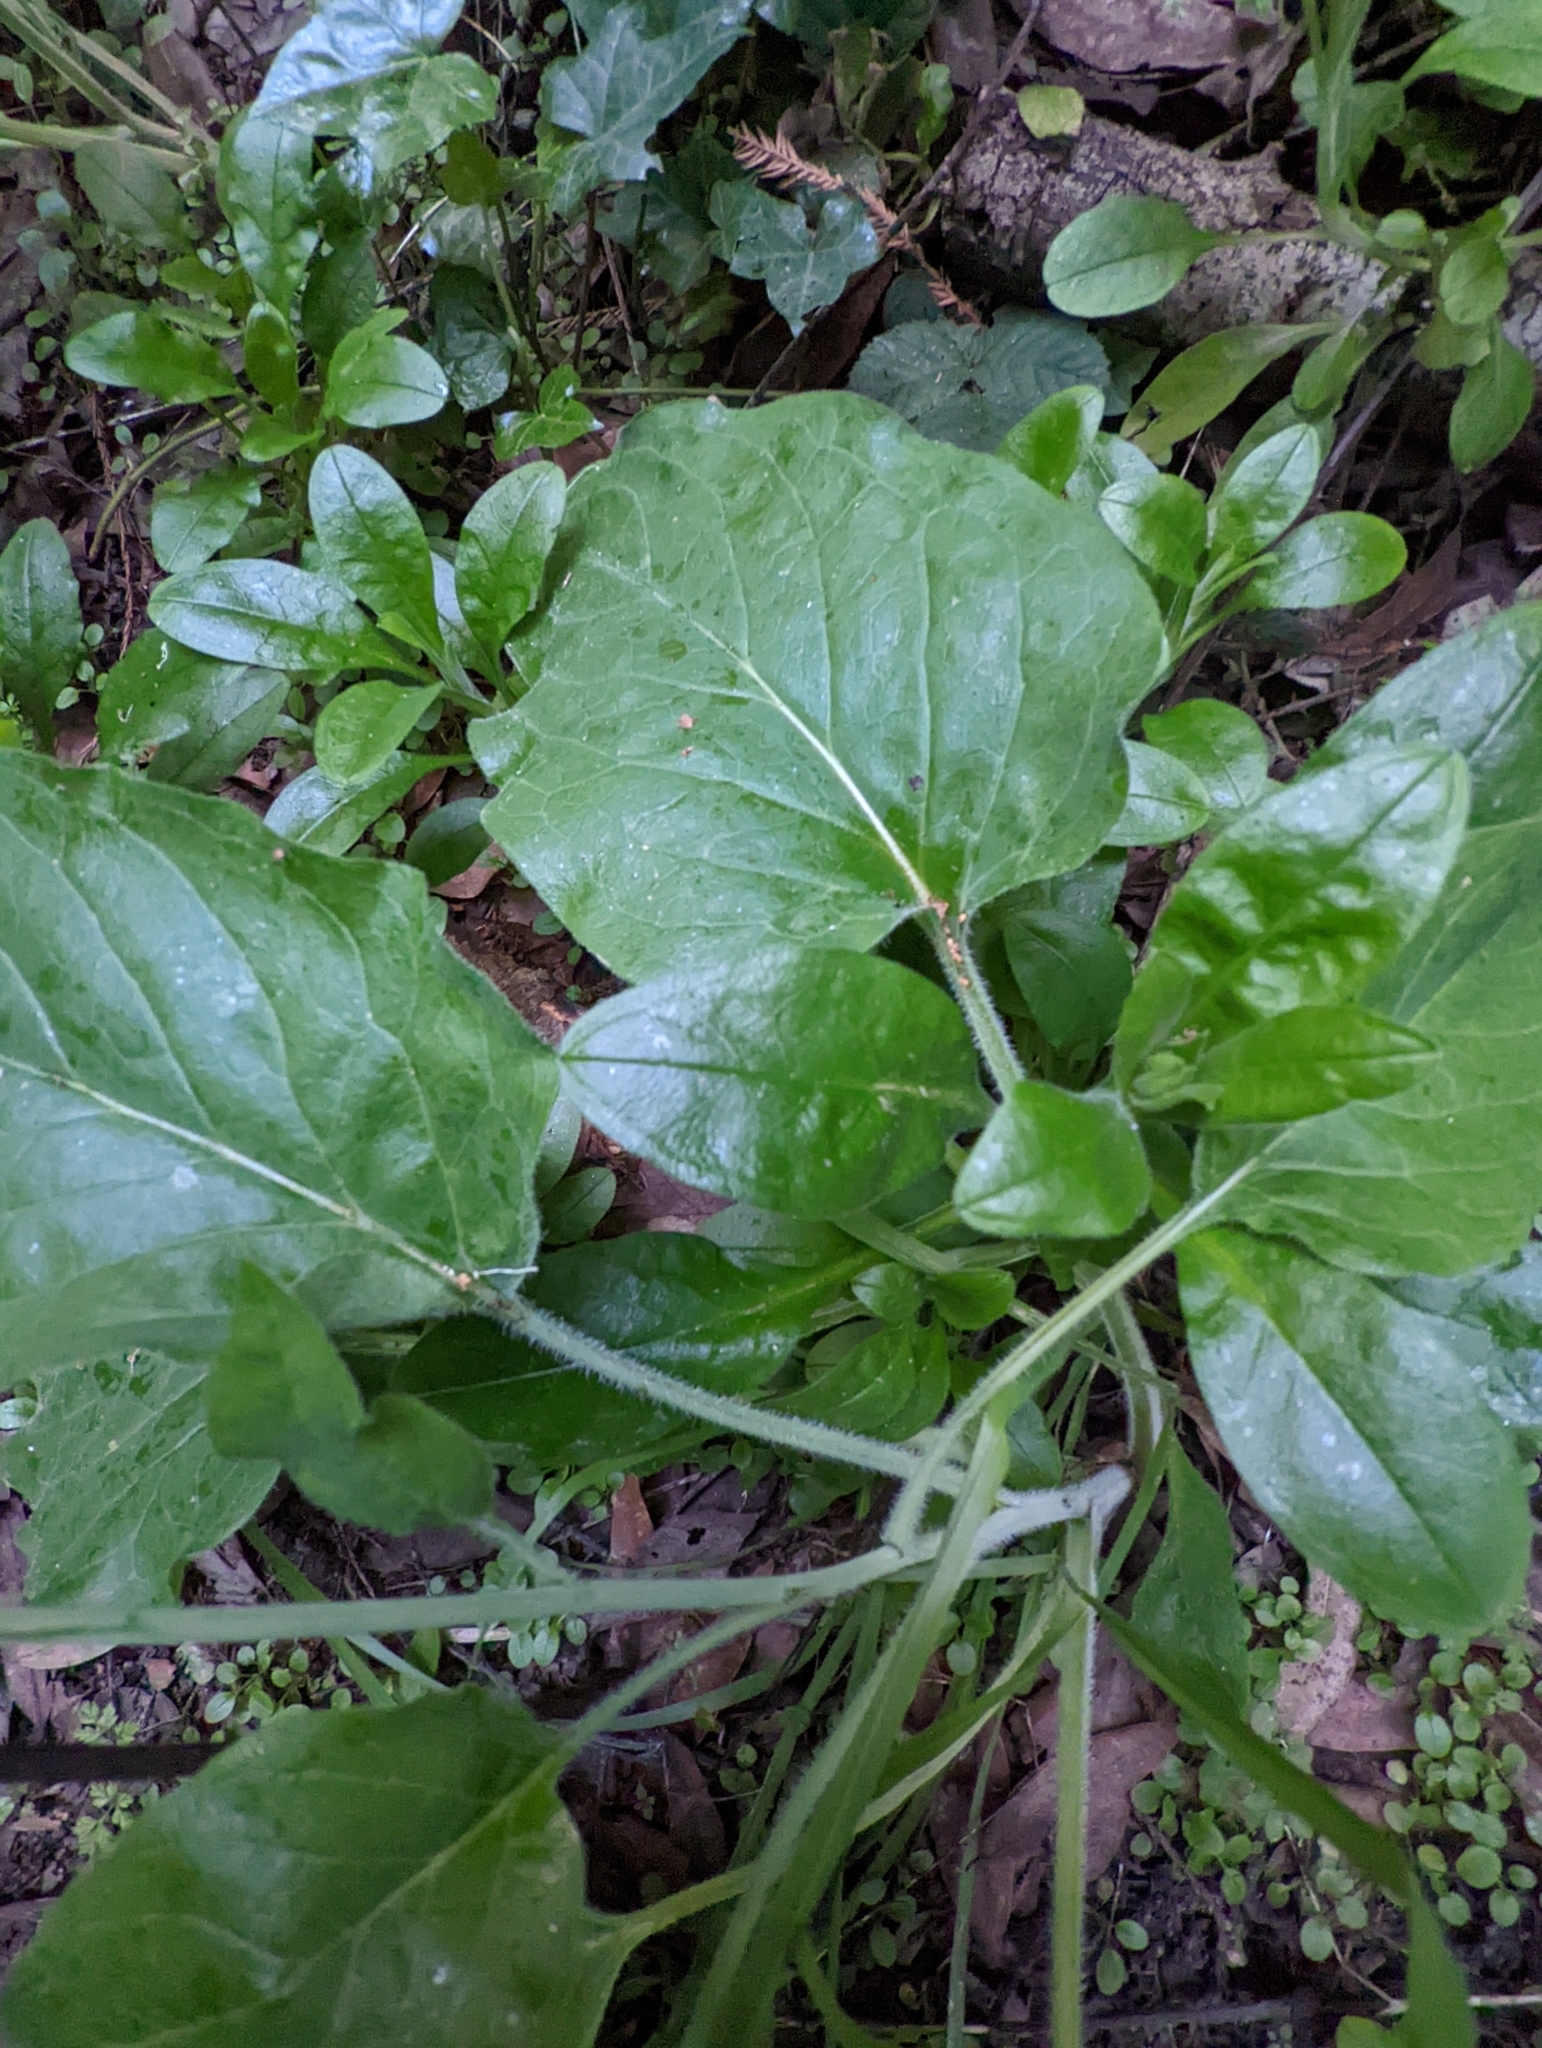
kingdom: Plantae
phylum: Tracheophyta
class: Magnoliopsida
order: Boraginales
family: Boraginaceae
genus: Adelinia
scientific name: Adelinia grande
